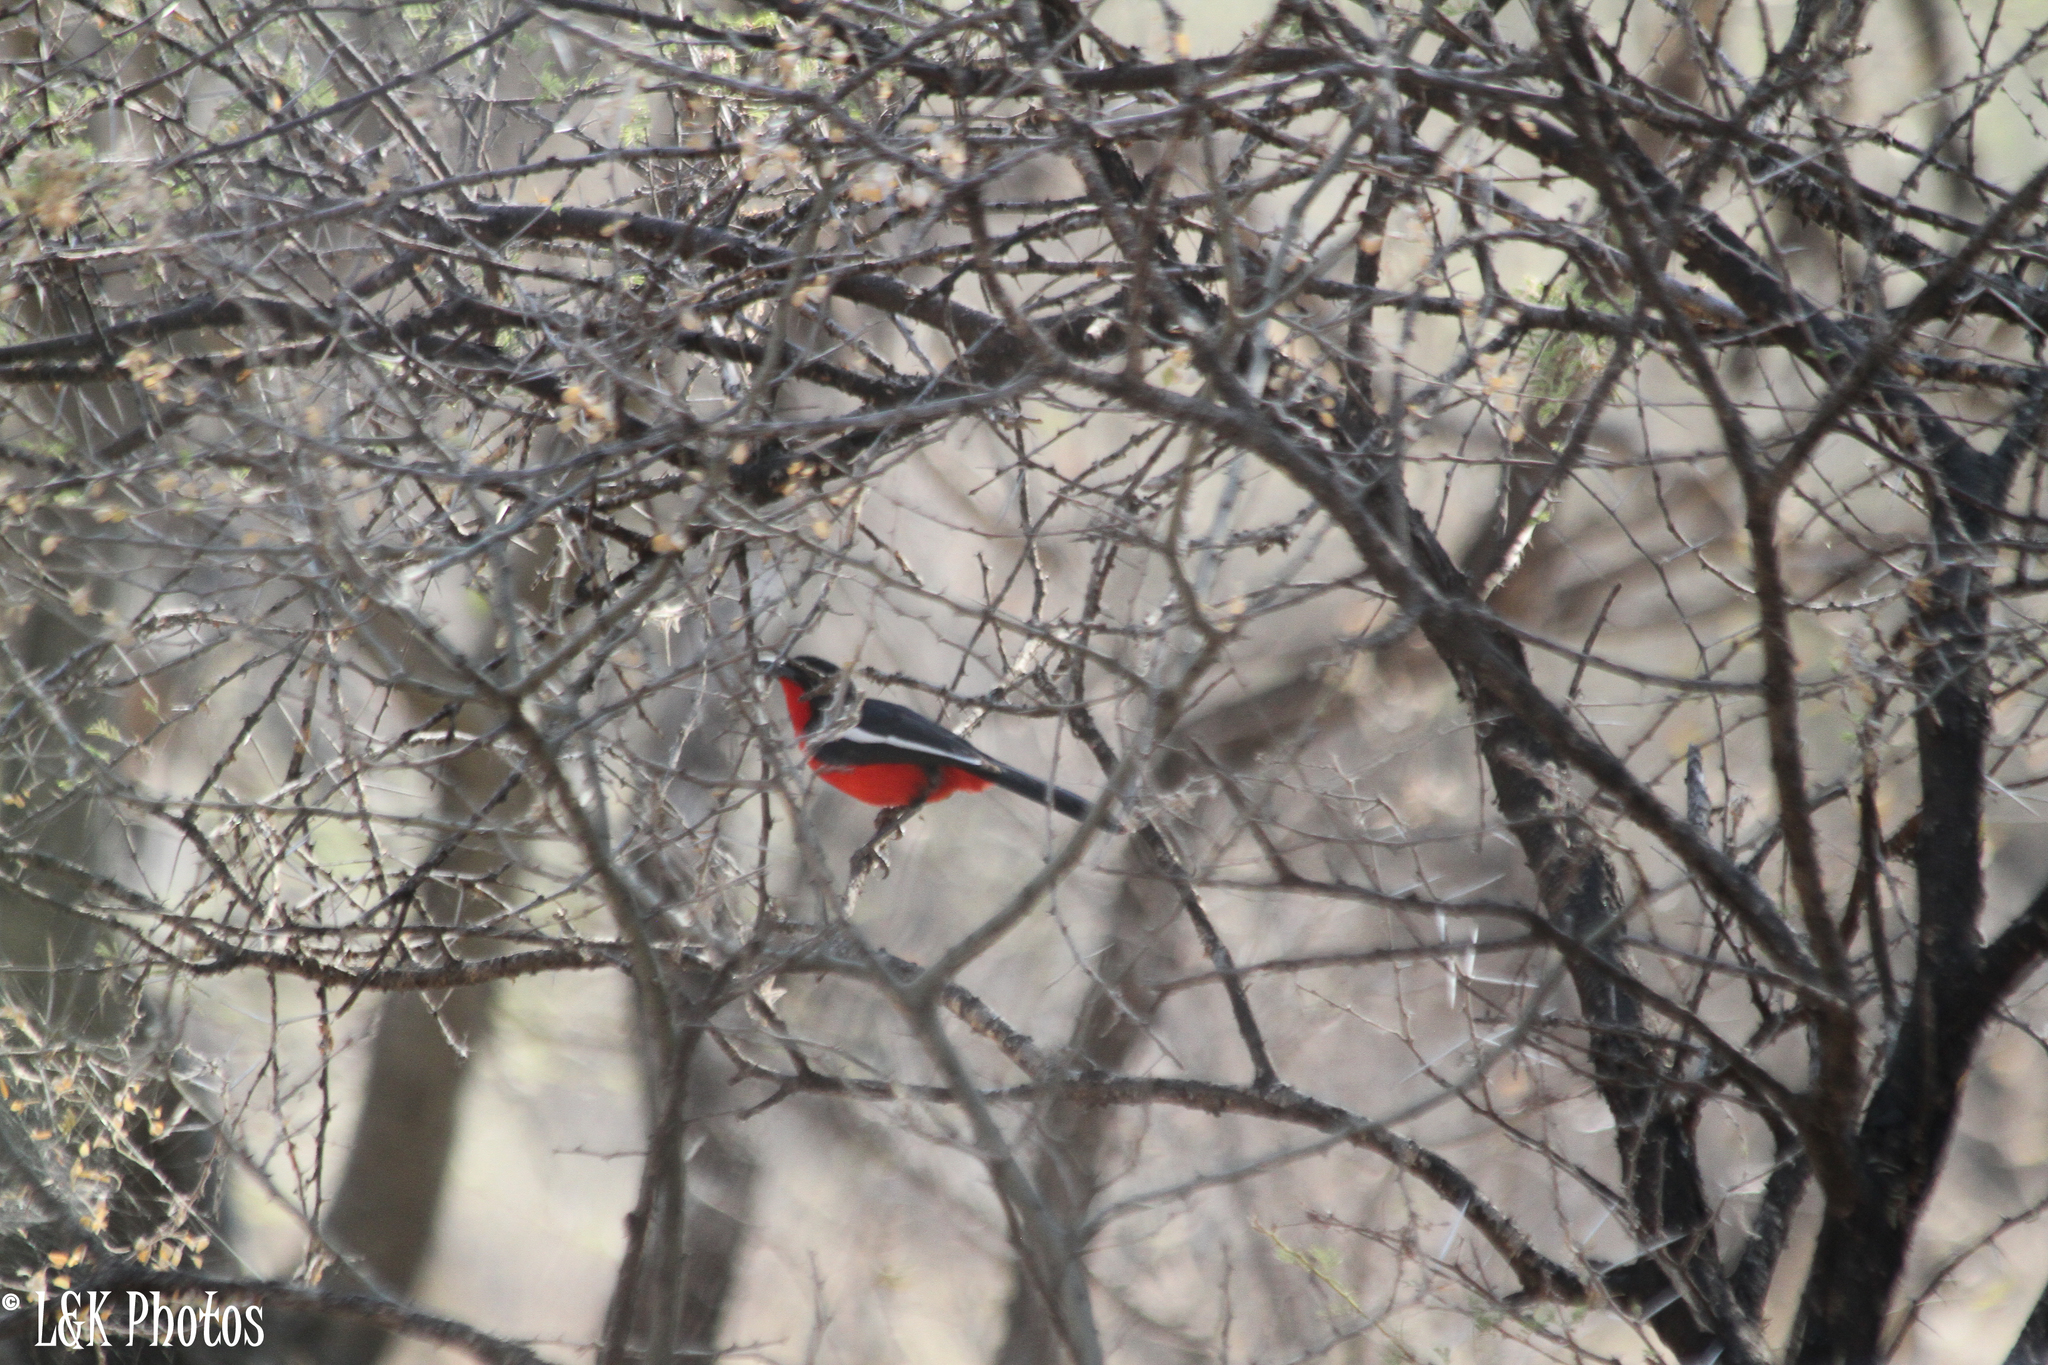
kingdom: Animalia
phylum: Chordata
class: Aves
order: Passeriformes
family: Malaconotidae
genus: Laniarius
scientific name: Laniarius atrococcineus
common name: Crimson-breasted shrike
